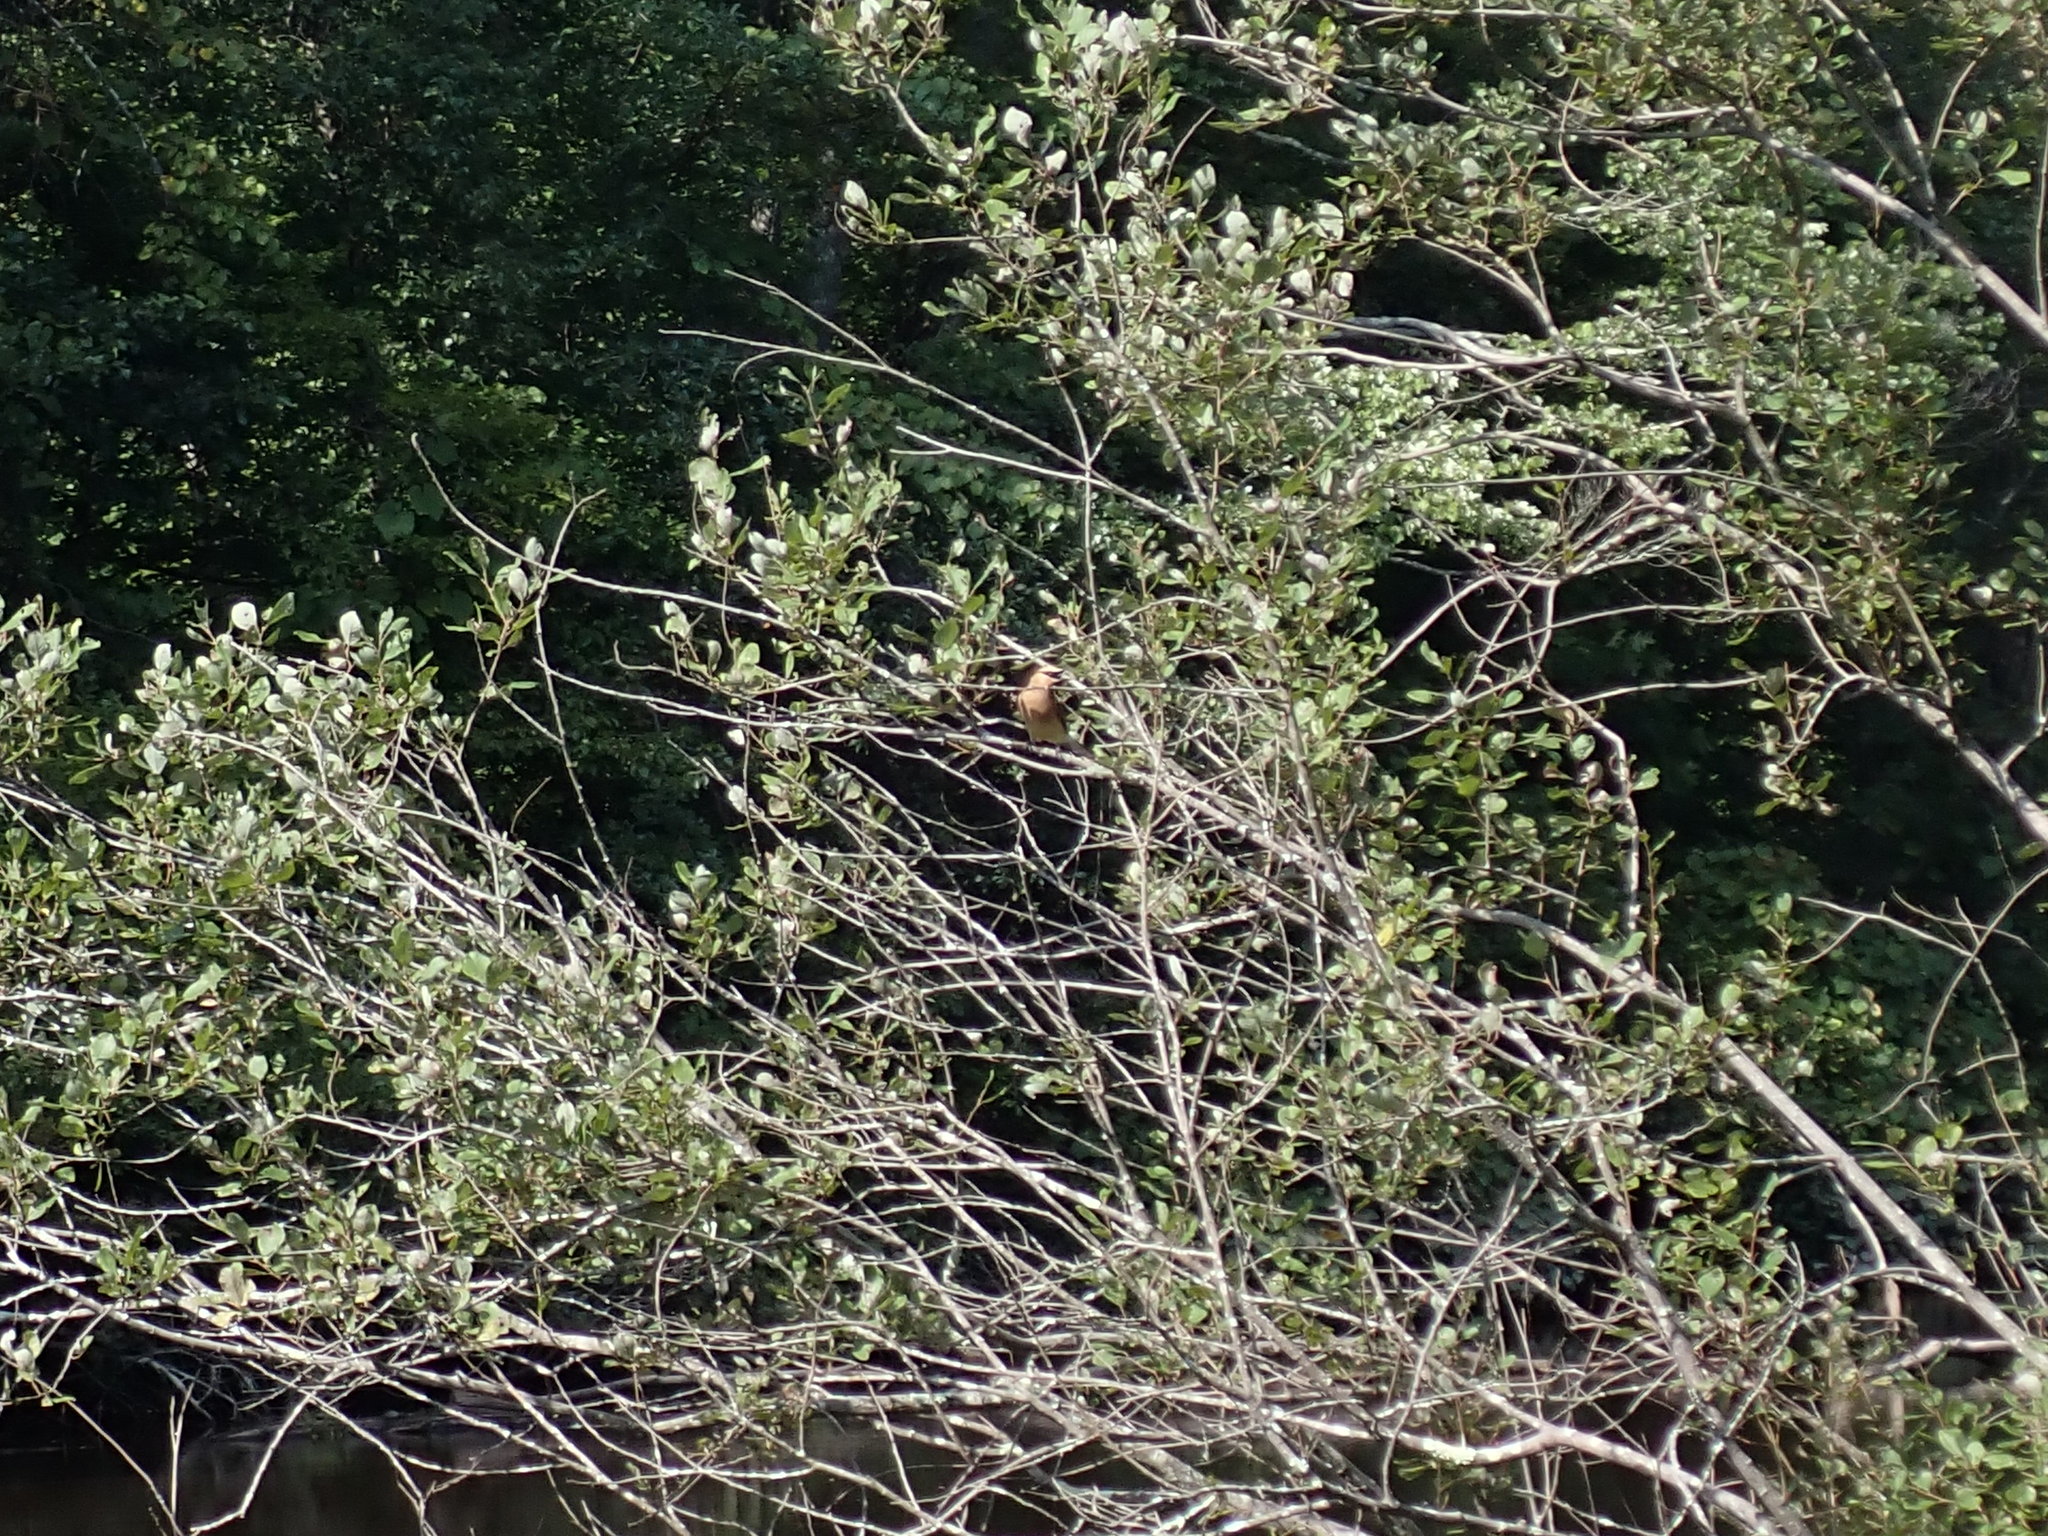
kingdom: Animalia
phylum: Chordata
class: Aves
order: Passeriformes
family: Bombycillidae
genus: Bombycilla
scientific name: Bombycilla cedrorum
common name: Cedar waxwing
